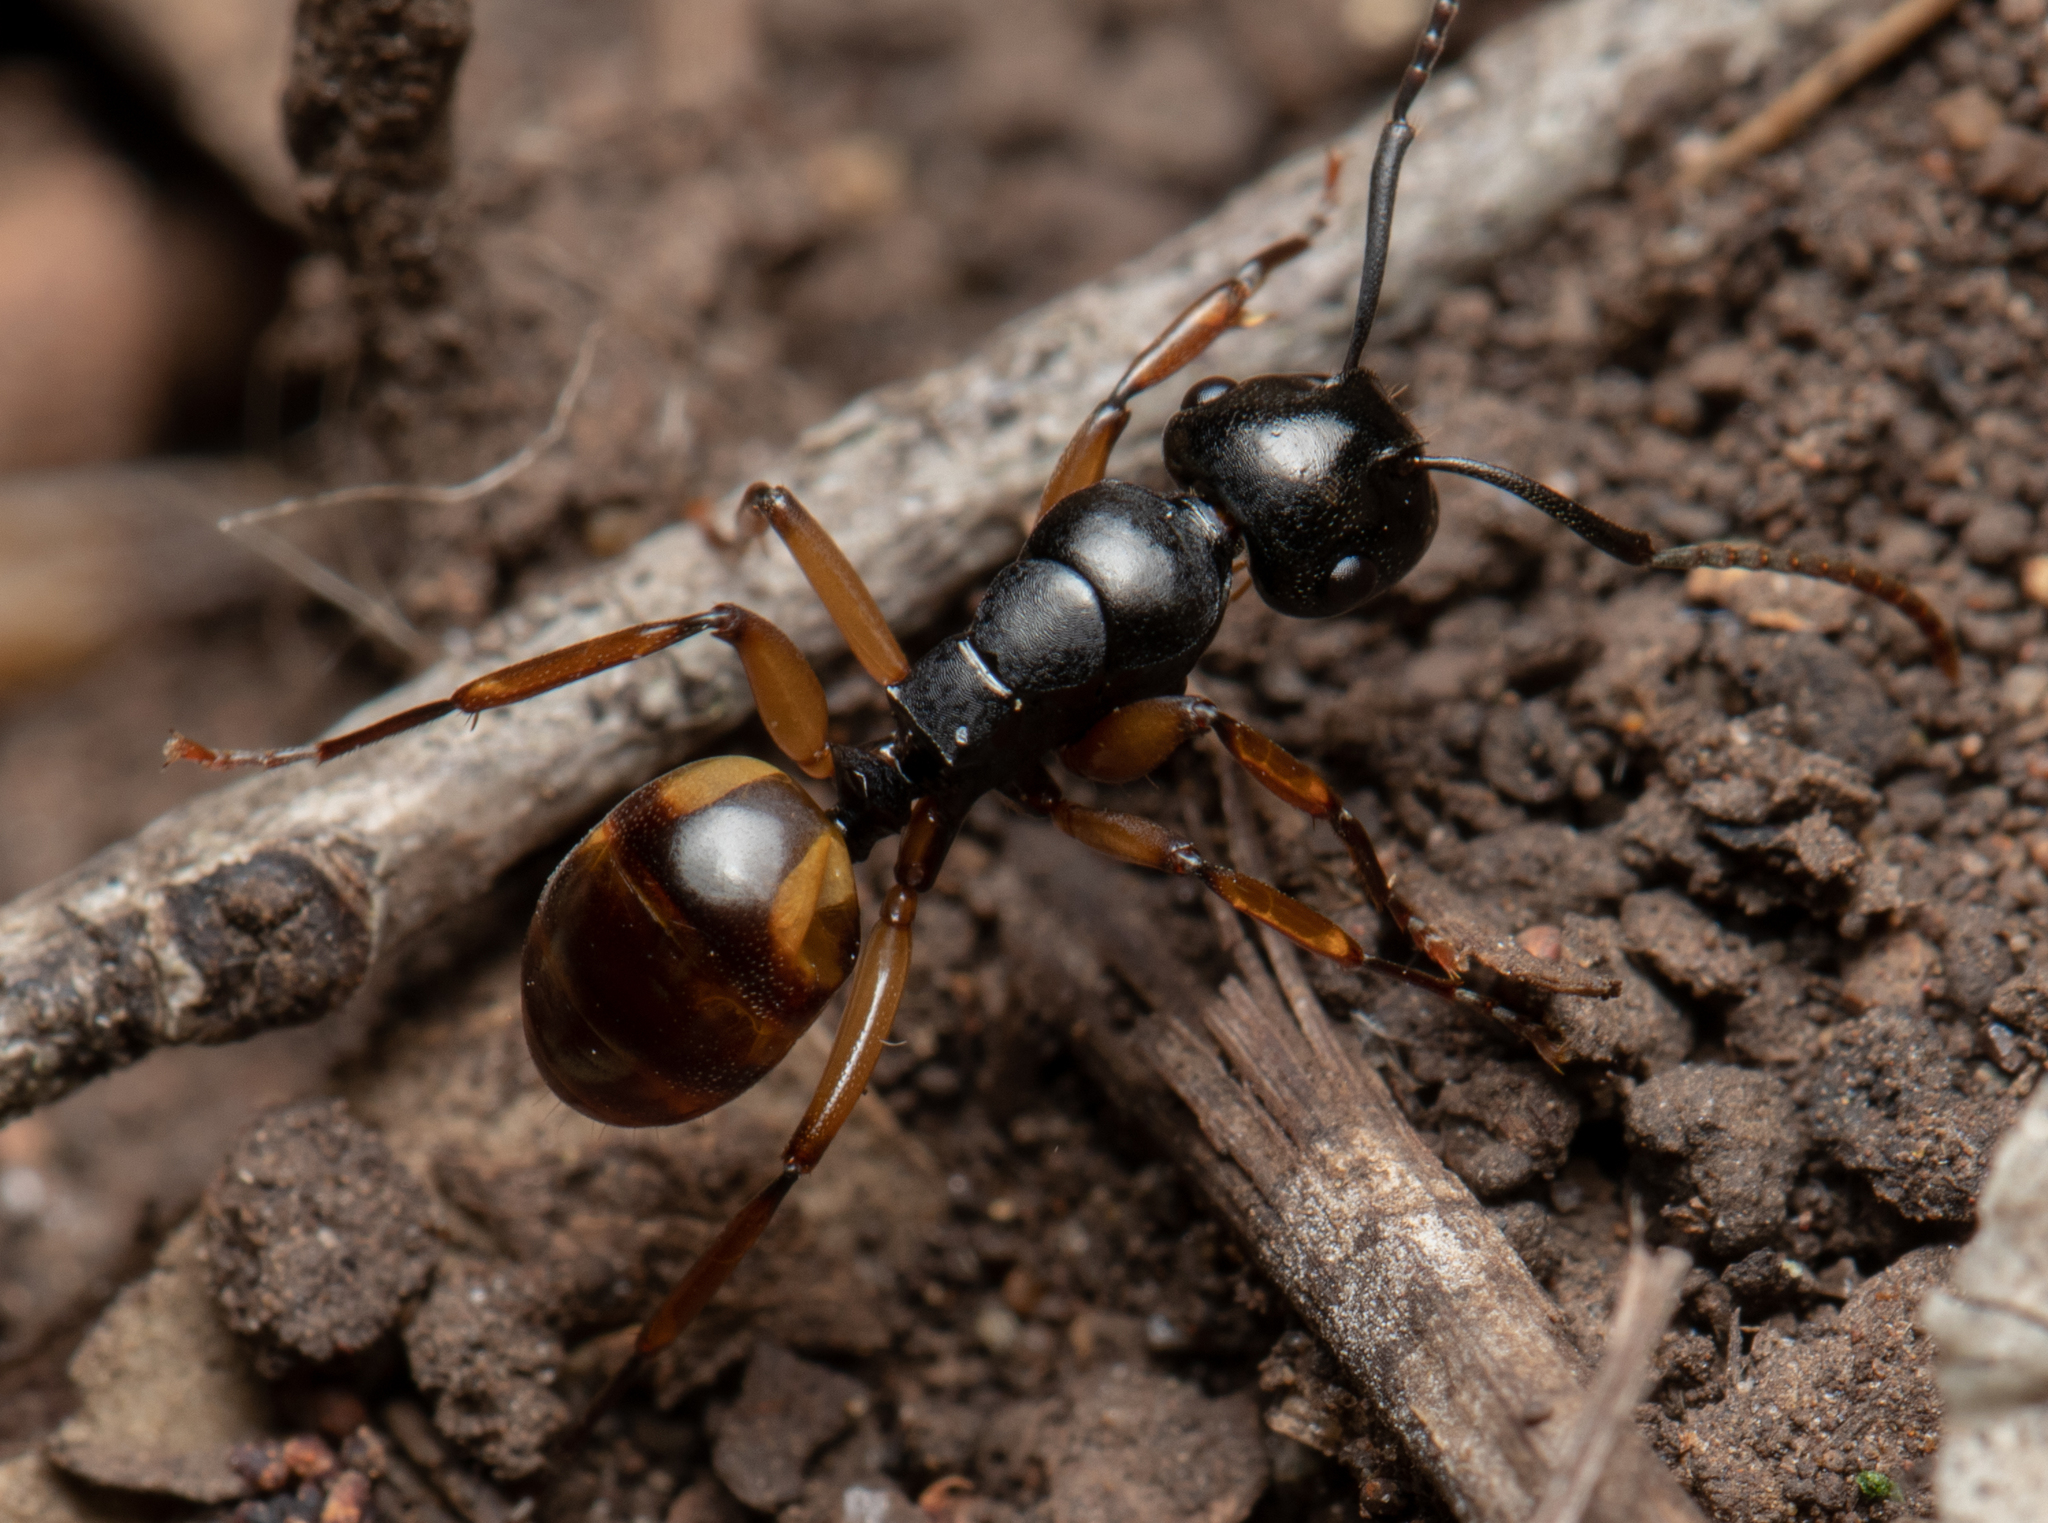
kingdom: Animalia
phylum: Arthropoda
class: Insecta
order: Hymenoptera
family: Formicidae
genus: Polyrhachis
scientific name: Polyrhachis flavibasis
